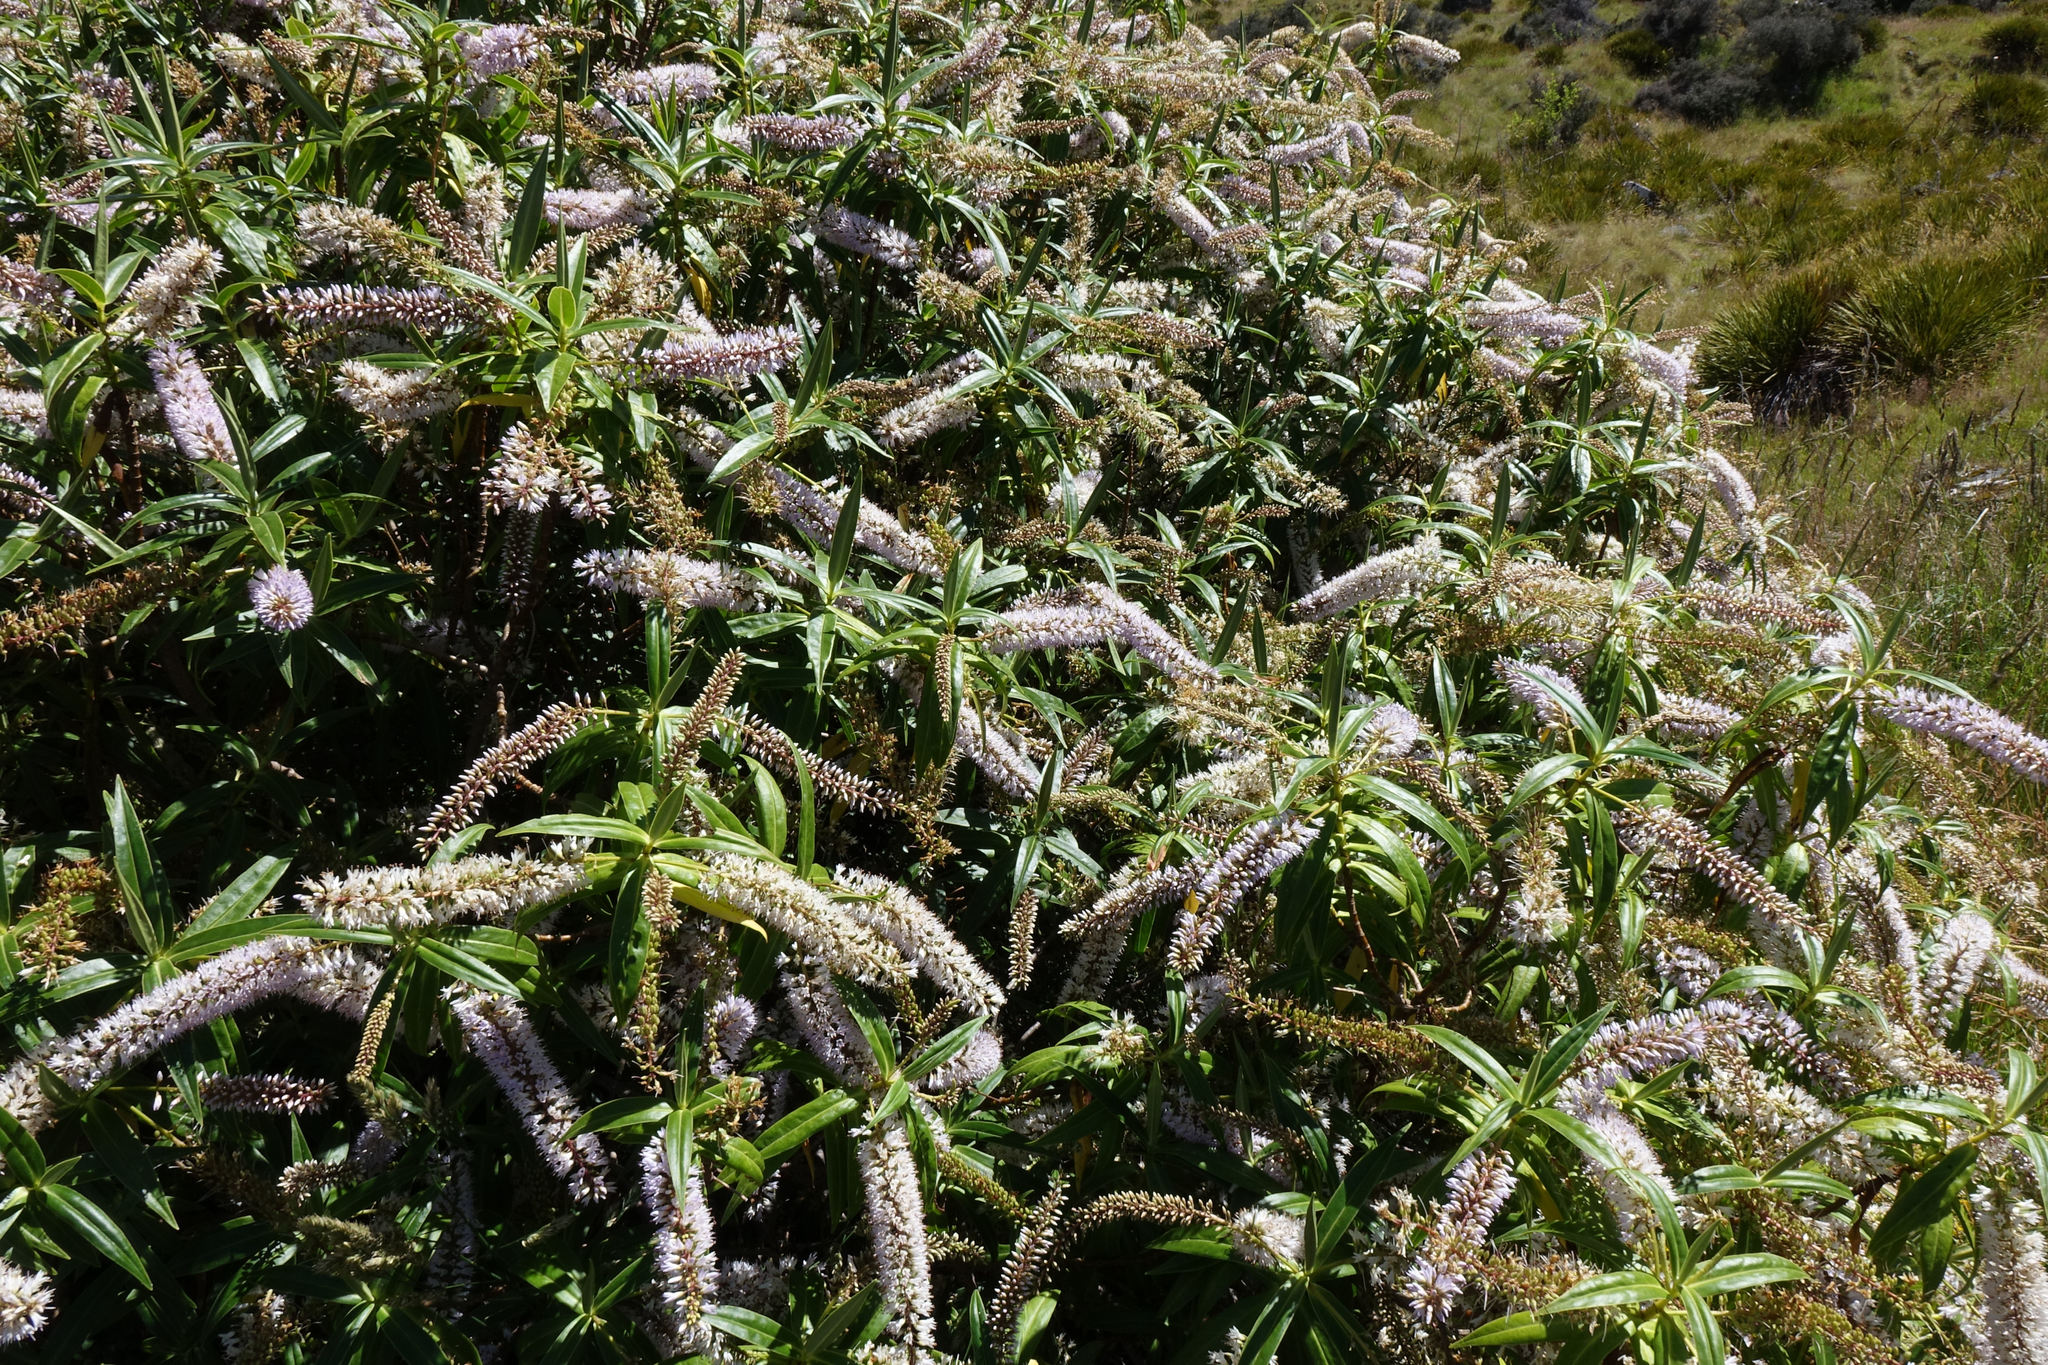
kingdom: Plantae
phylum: Tracheophyta
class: Magnoliopsida
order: Lamiales
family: Plantaginaceae
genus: Veronica
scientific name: Veronica salicifolia
